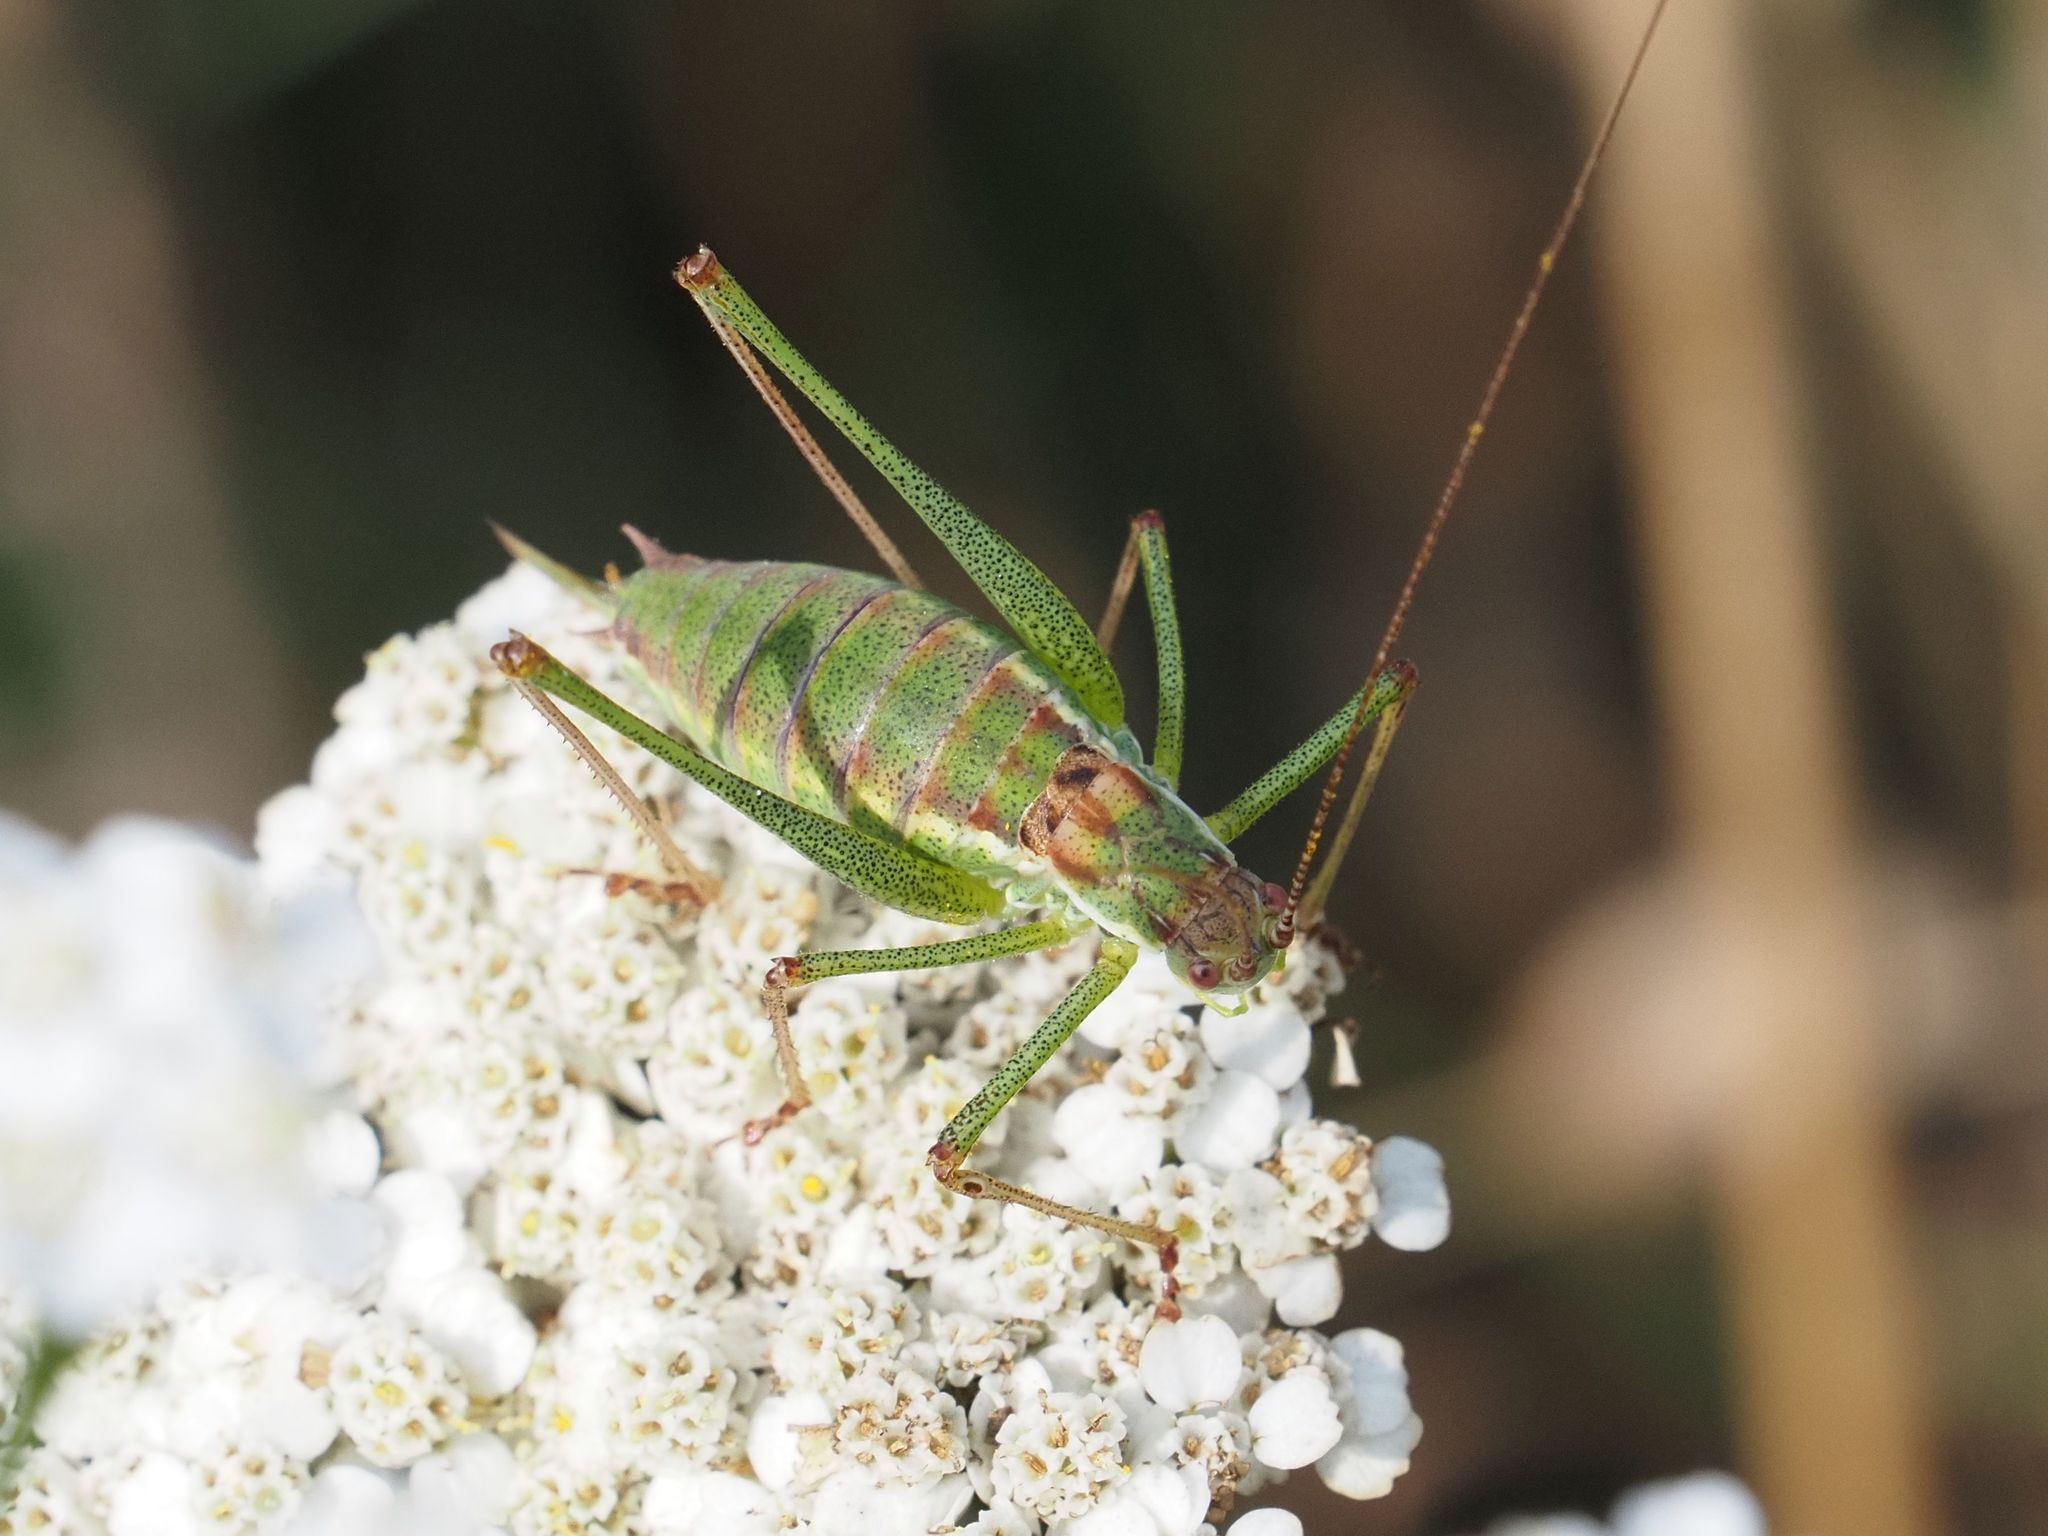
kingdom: Animalia
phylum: Arthropoda
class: Insecta
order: Orthoptera
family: Tettigoniidae
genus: Leptophyes
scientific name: Leptophyes albovittata
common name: Striped bush-cricket
